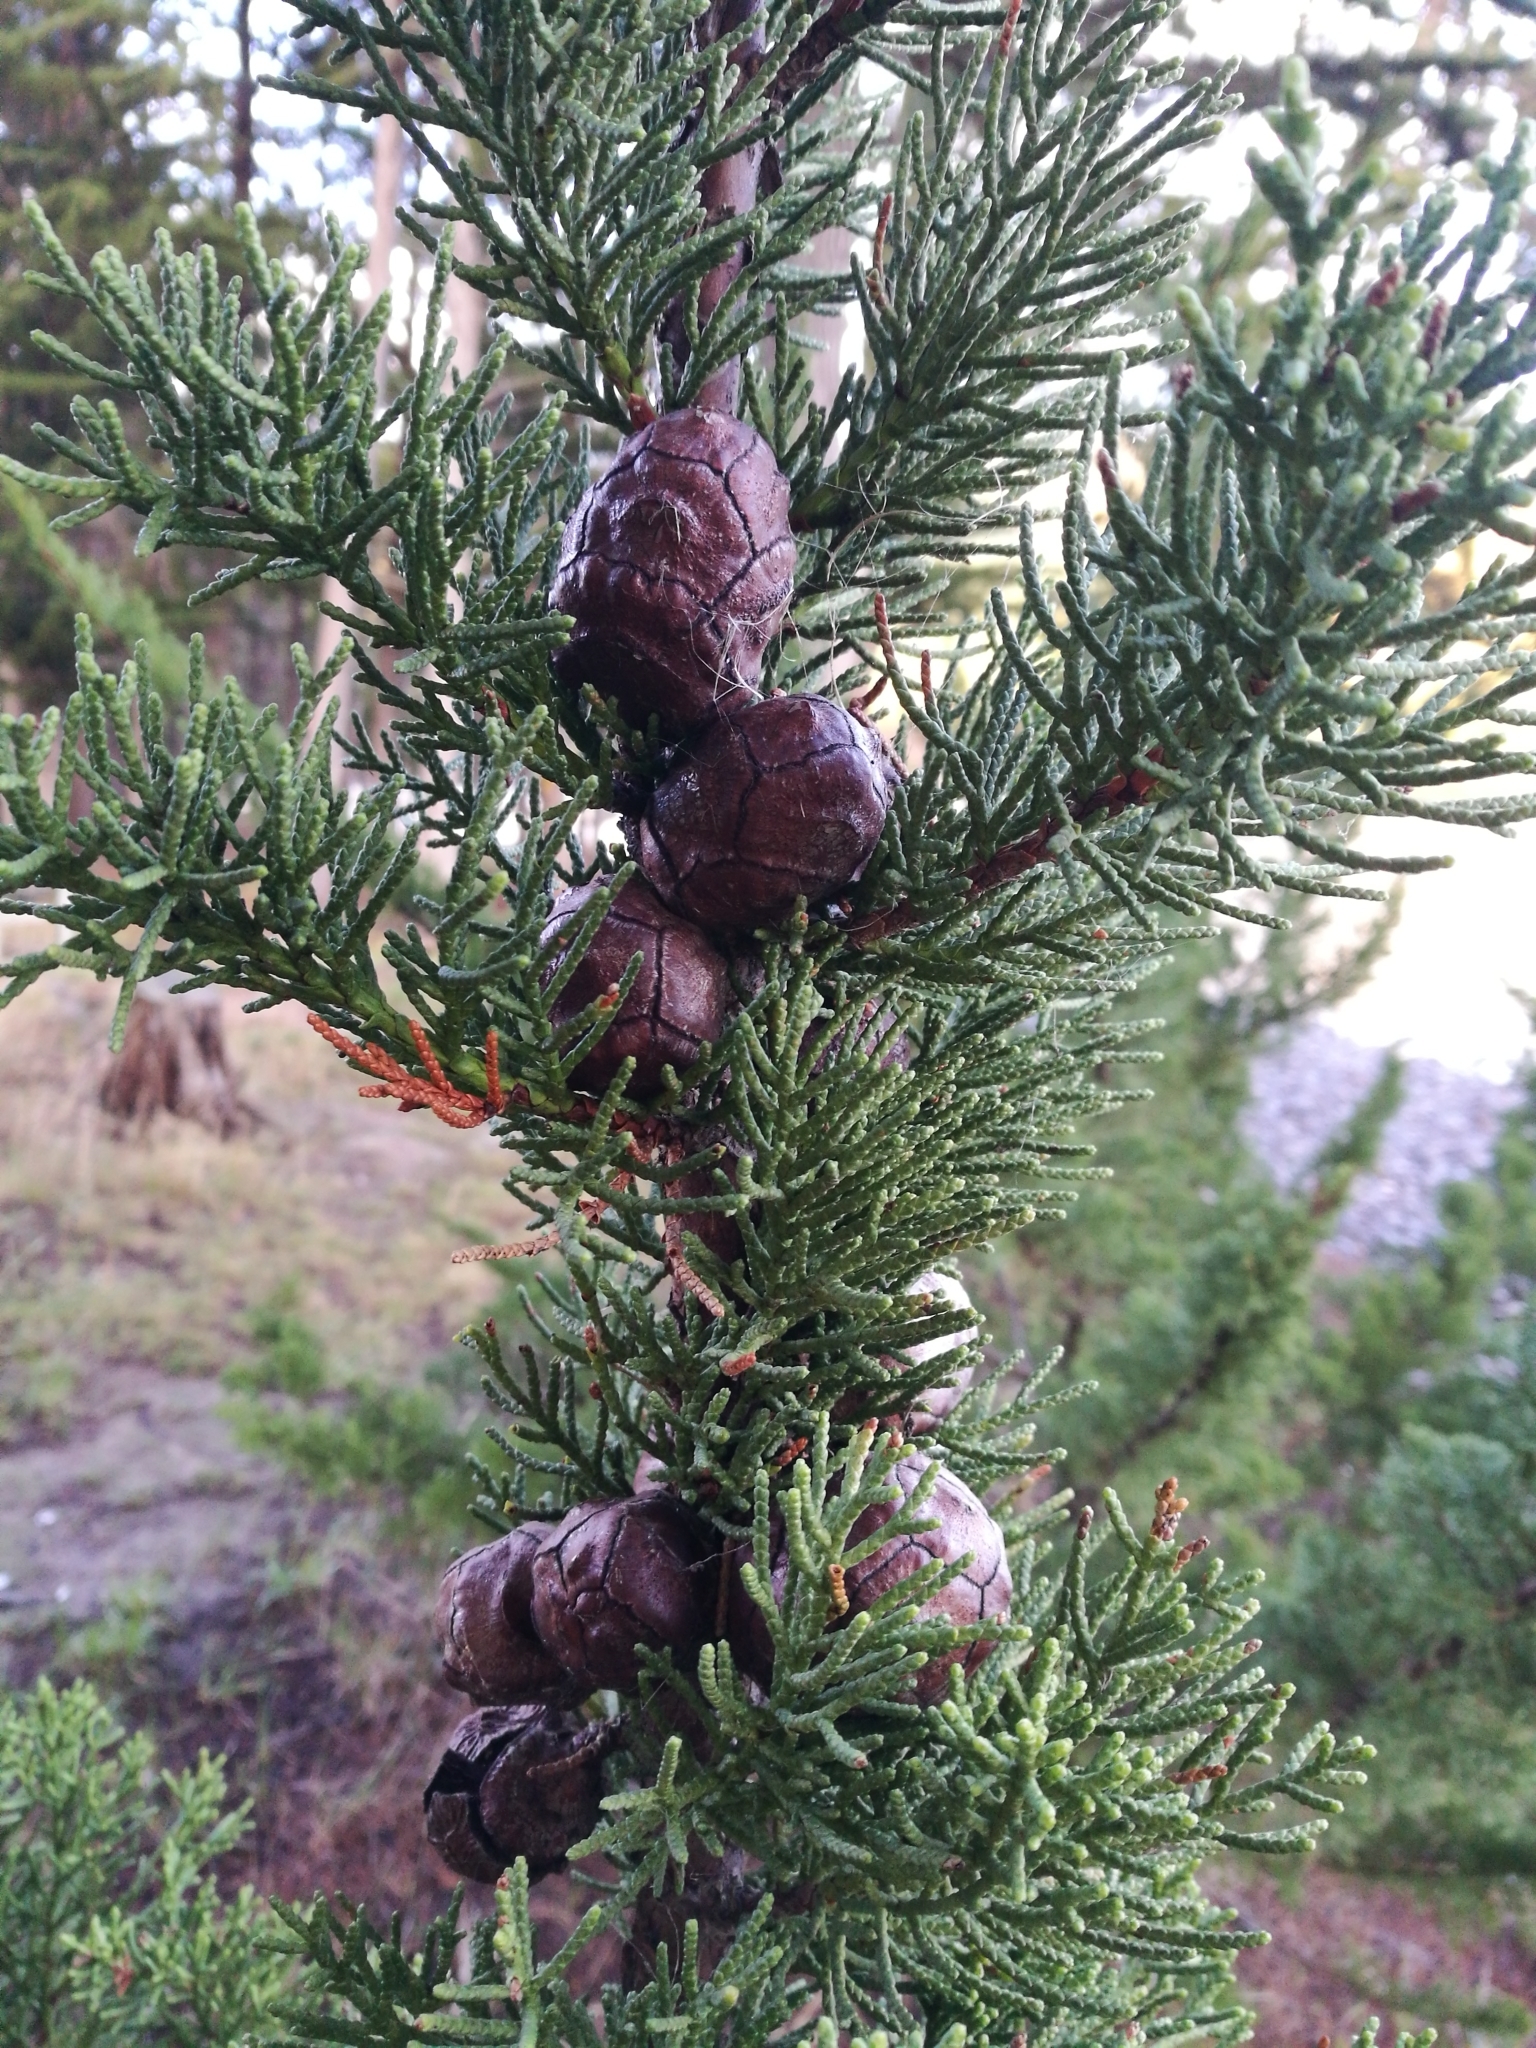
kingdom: Plantae
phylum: Tracheophyta
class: Pinopsida
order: Pinales
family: Cupressaceae
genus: Cupressus
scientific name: Cupressus macrocarpa
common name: Monterey cypress
